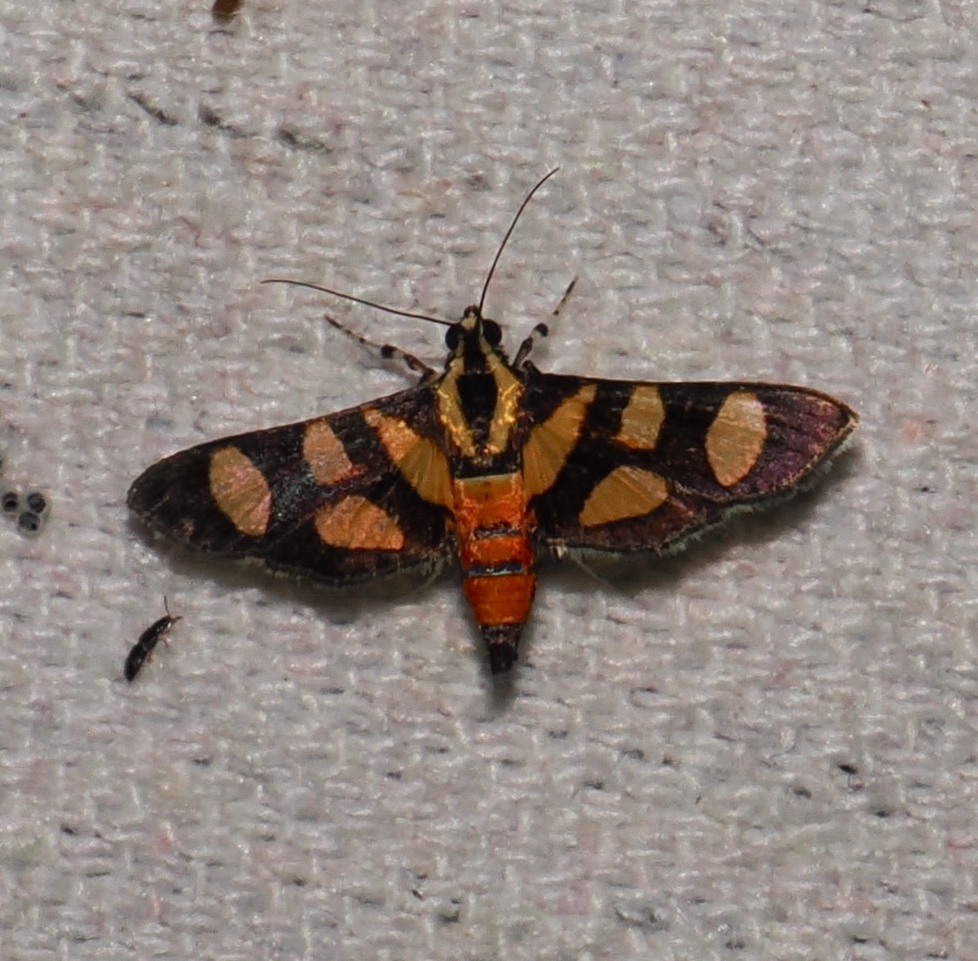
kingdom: Animalia
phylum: Arthropoda
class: Insecta
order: Lepidoptera
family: Crambidae
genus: Syngamia
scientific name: Syngamia florella
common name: Orange-spotted flower moth
